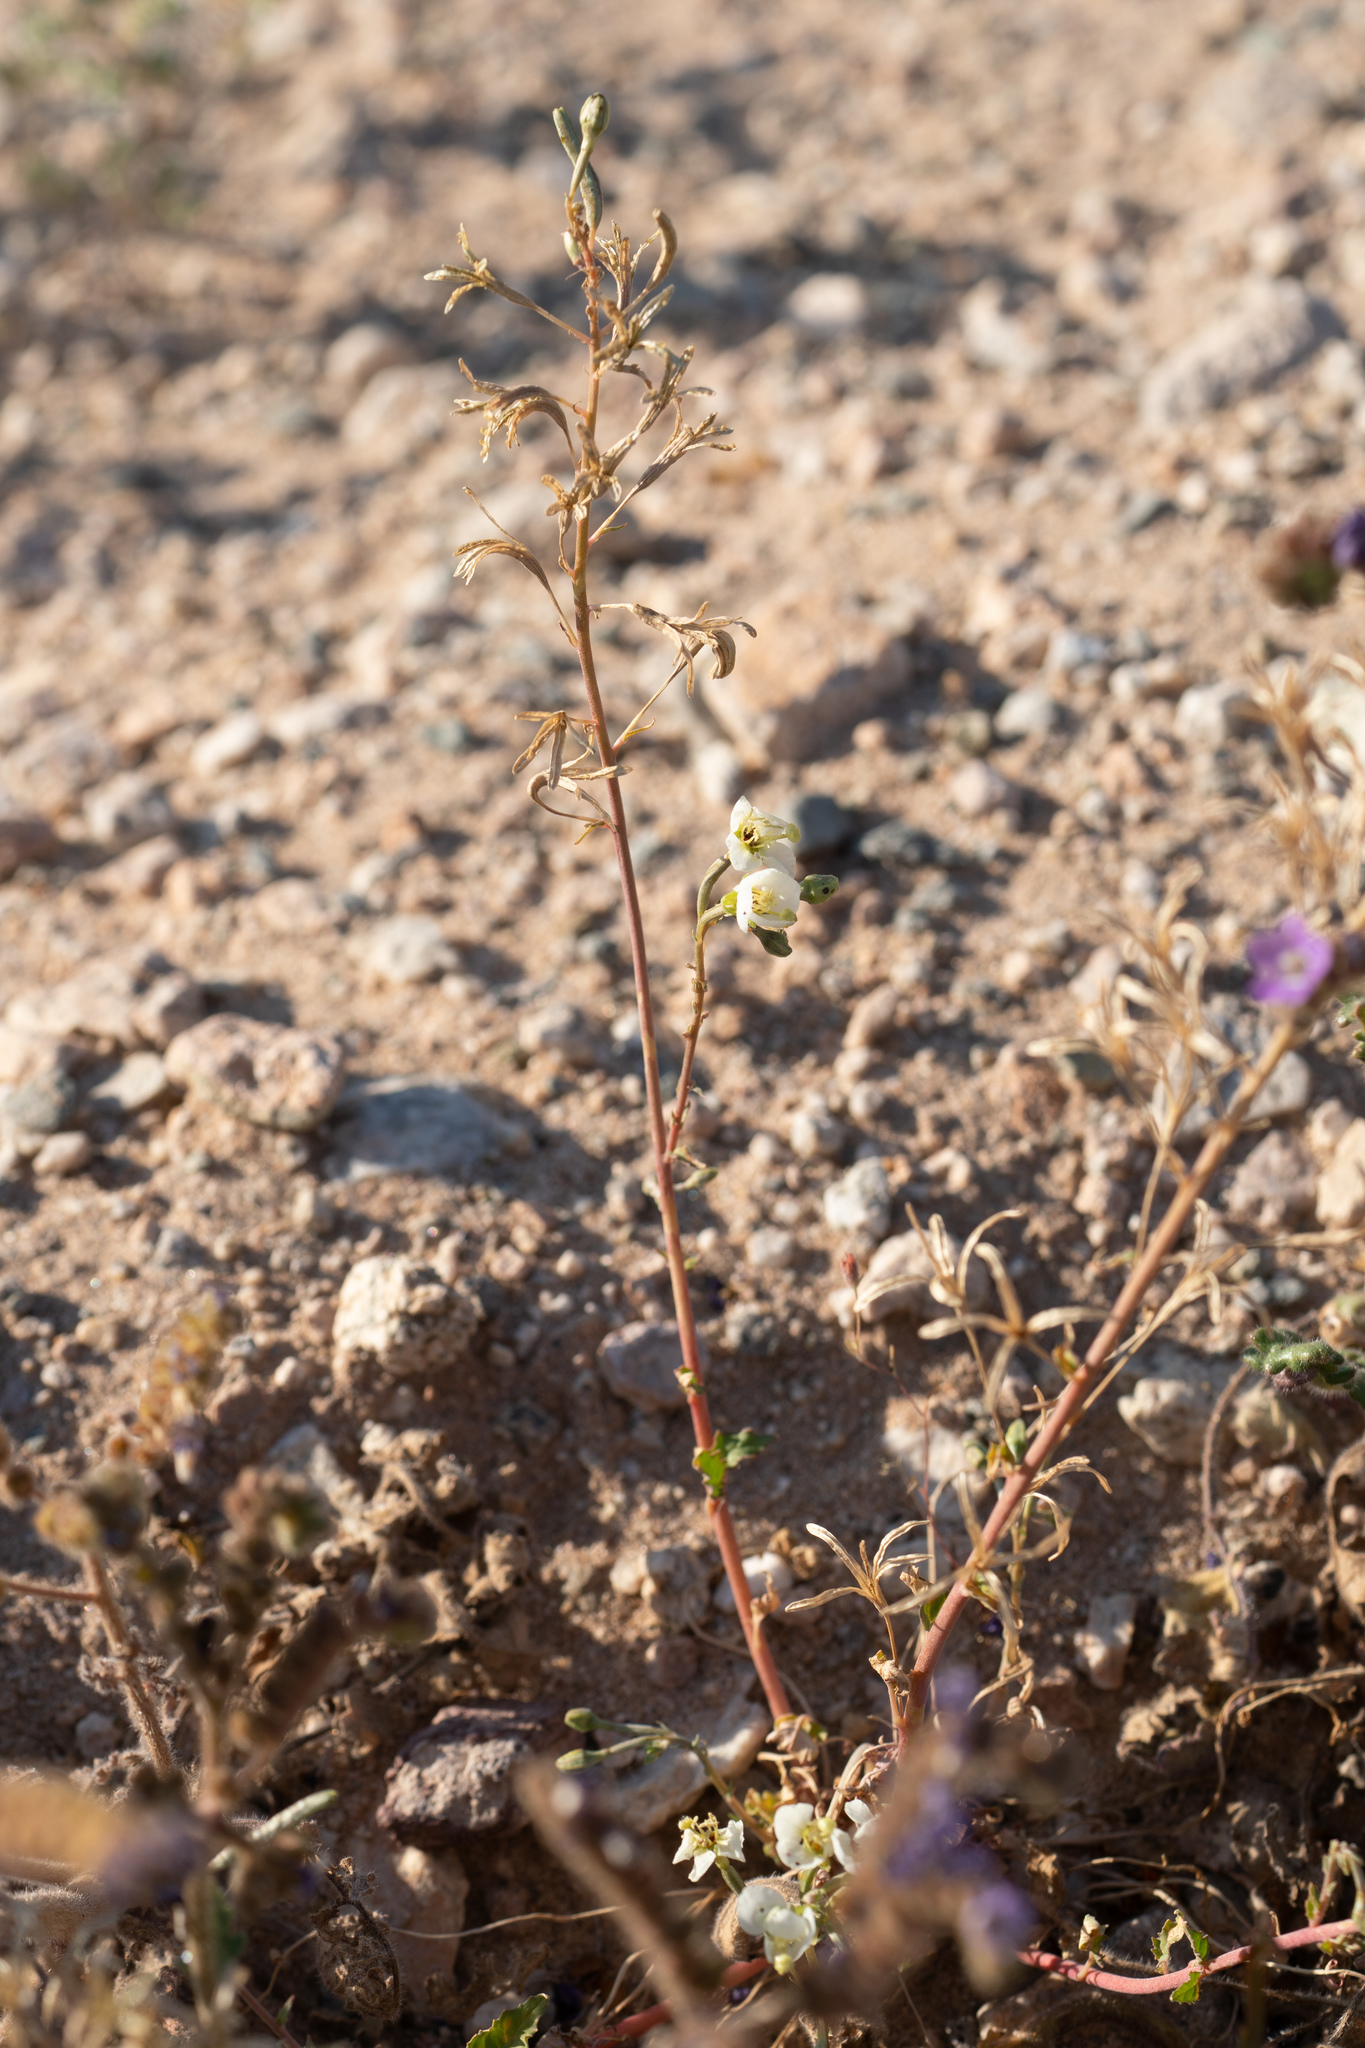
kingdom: Plantae
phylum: Tracheophyta
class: Magnoliopsida
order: Myrtales
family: Onagraceae
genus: Chylismia
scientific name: Chylismia claviformis
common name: Browneyes
